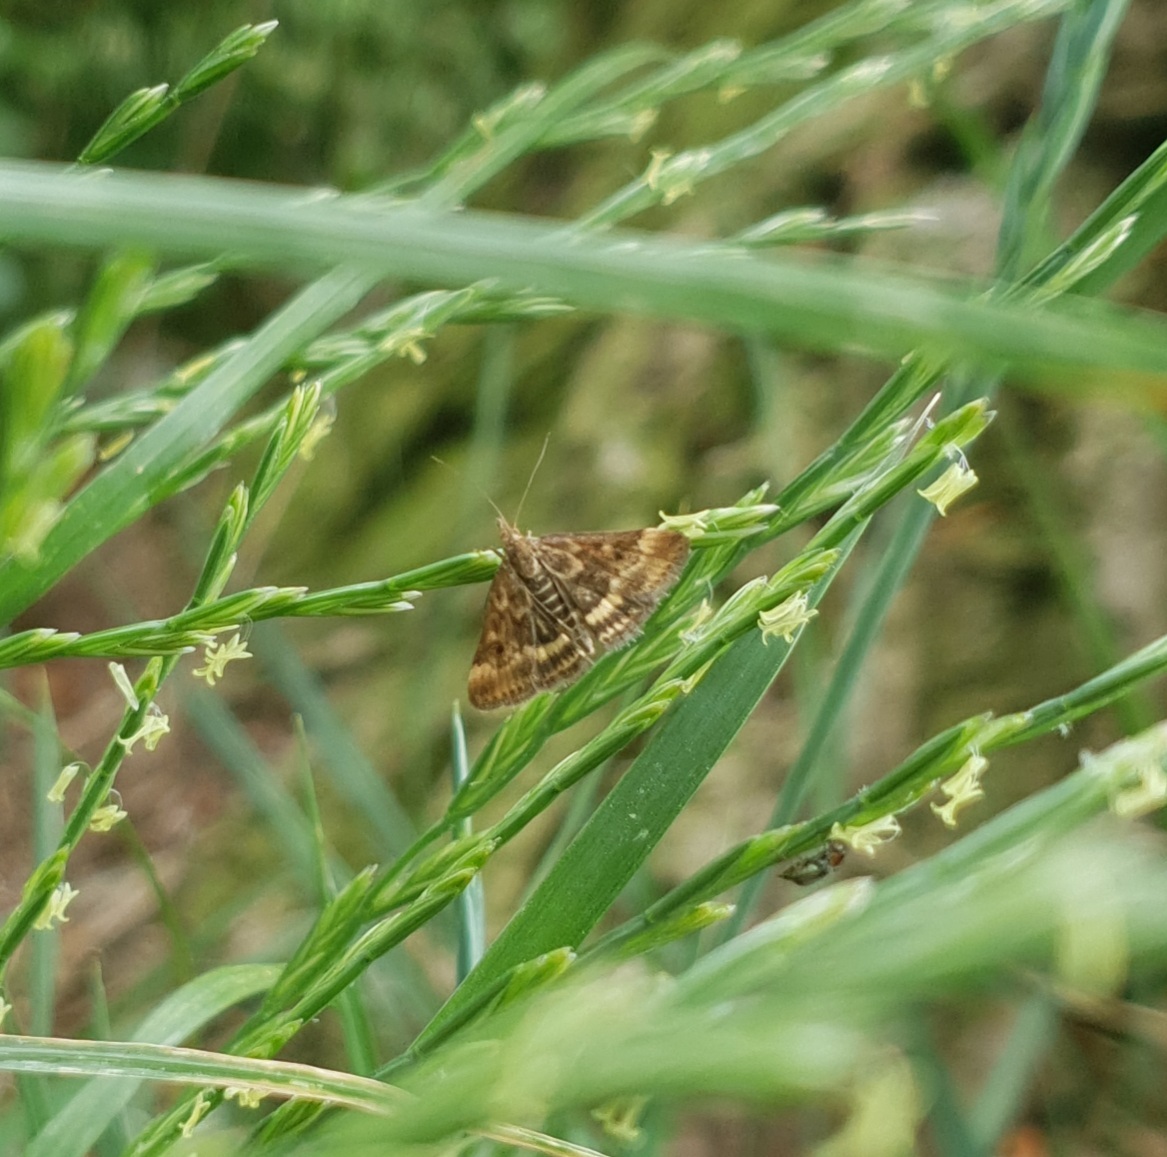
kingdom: Animalia
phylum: Arthropoda
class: Insecta
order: Lepidoptera
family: Crambidae
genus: Pyrausta
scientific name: Pyrausta despicata
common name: Straw-barred pearl
